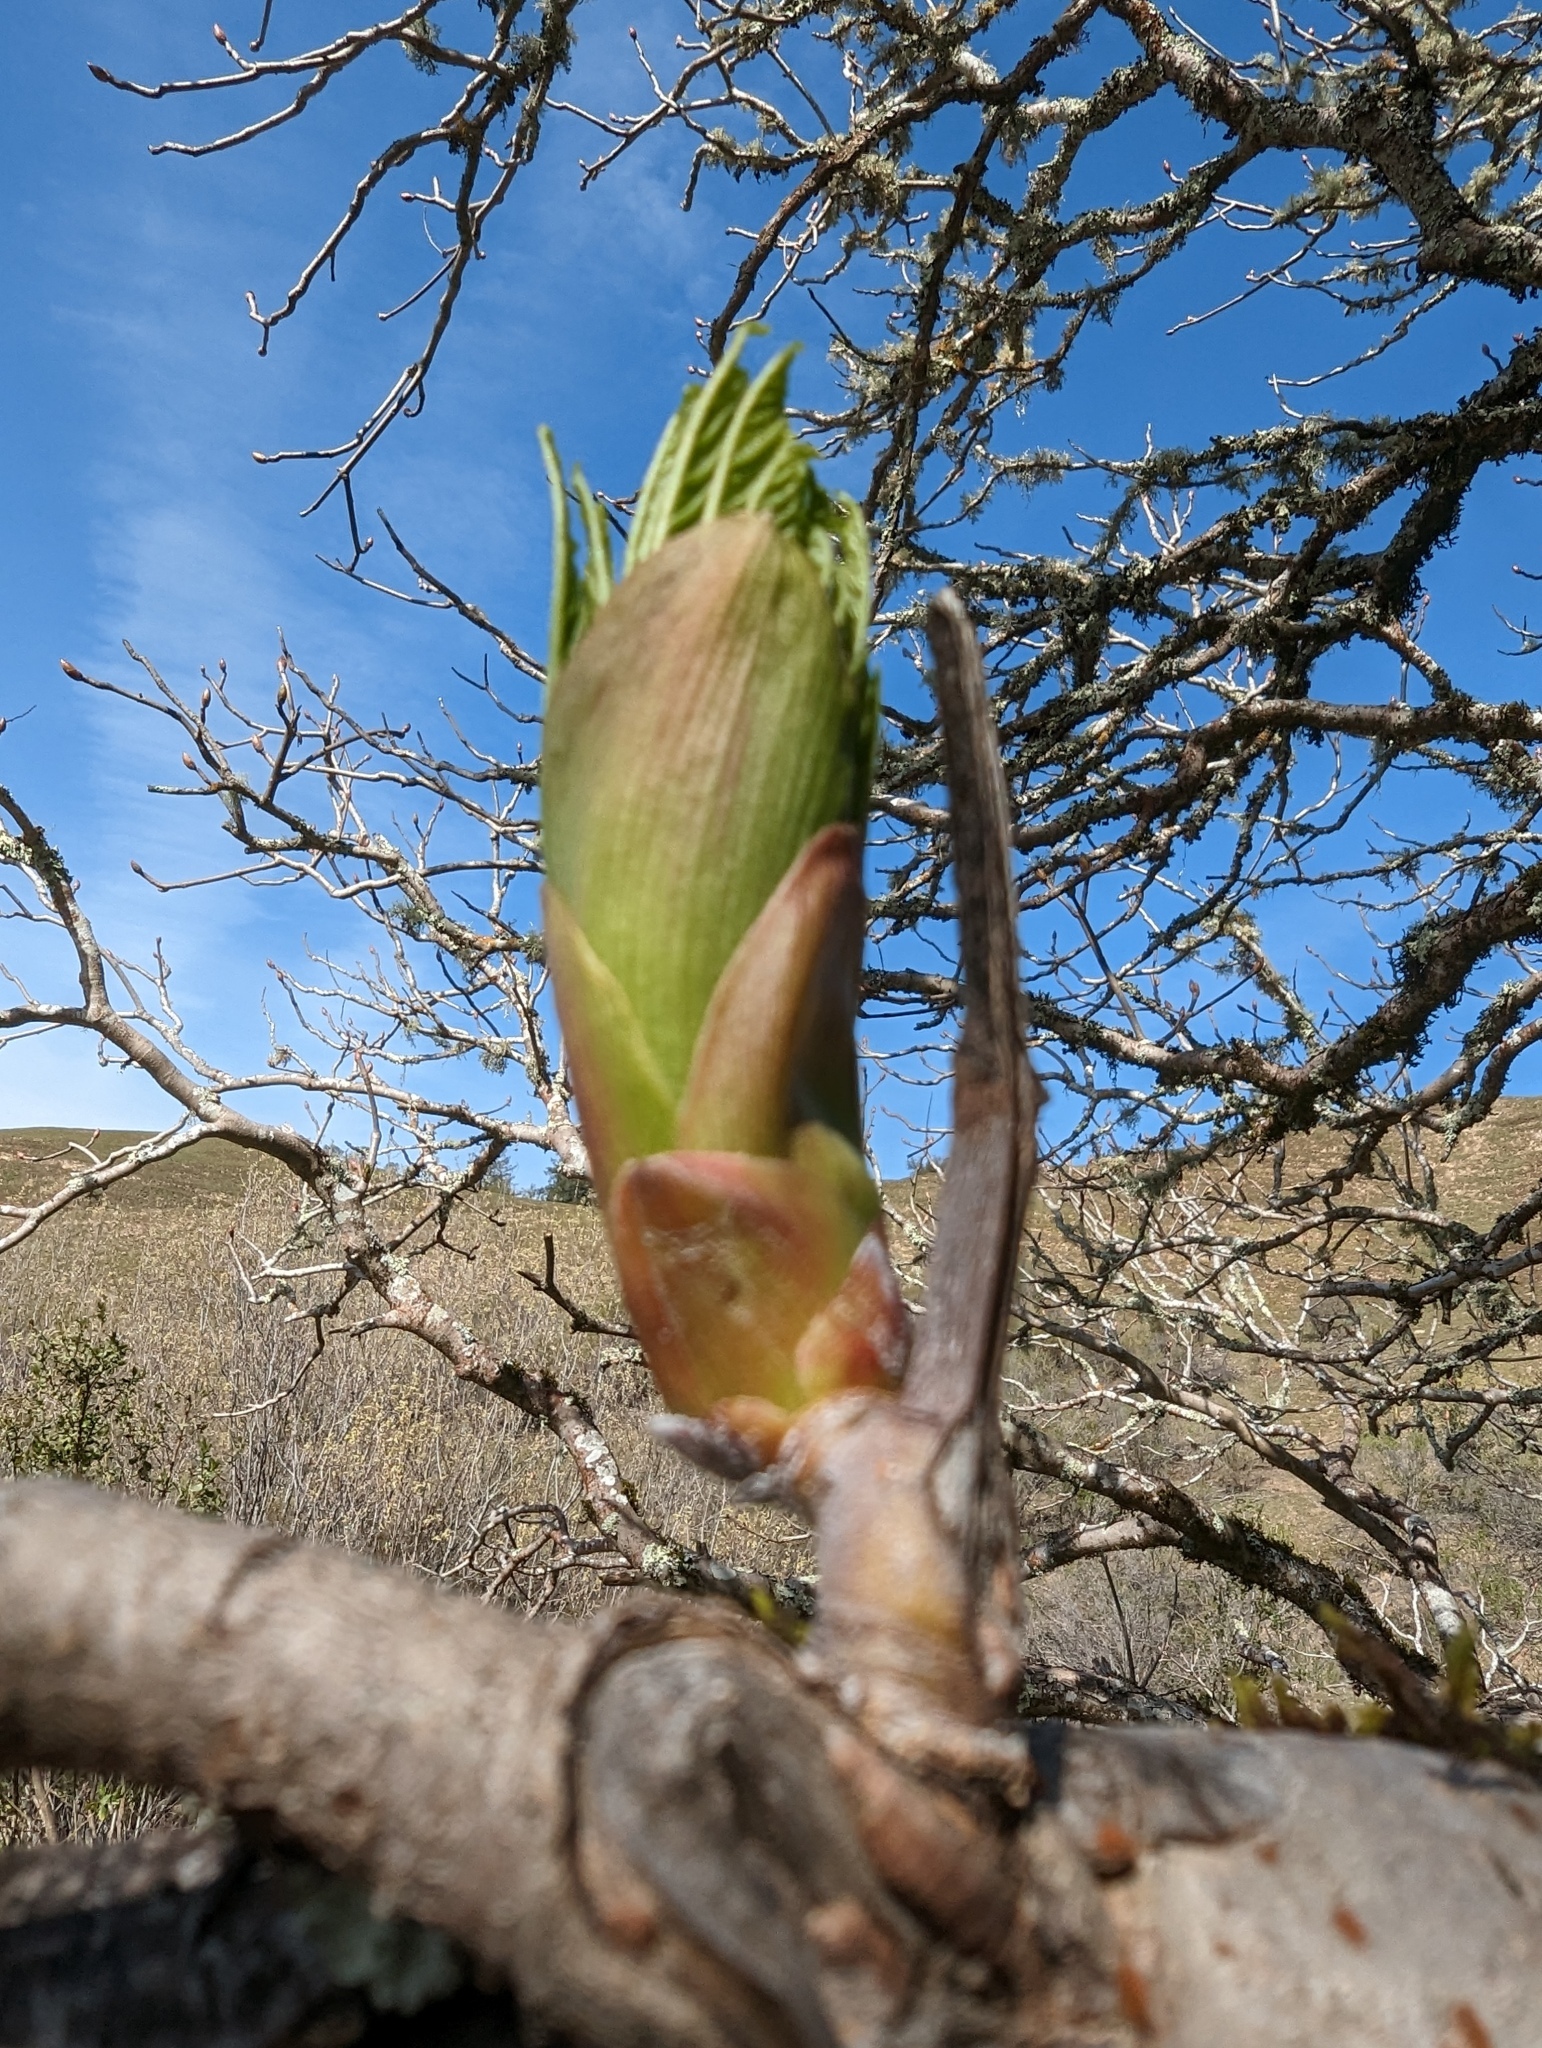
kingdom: Plantae
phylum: Tracheophyta
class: Magnoliopsida
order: Sapindales
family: Sapindaceae
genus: Aesculus
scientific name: Aesculus californica
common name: California buckeye
